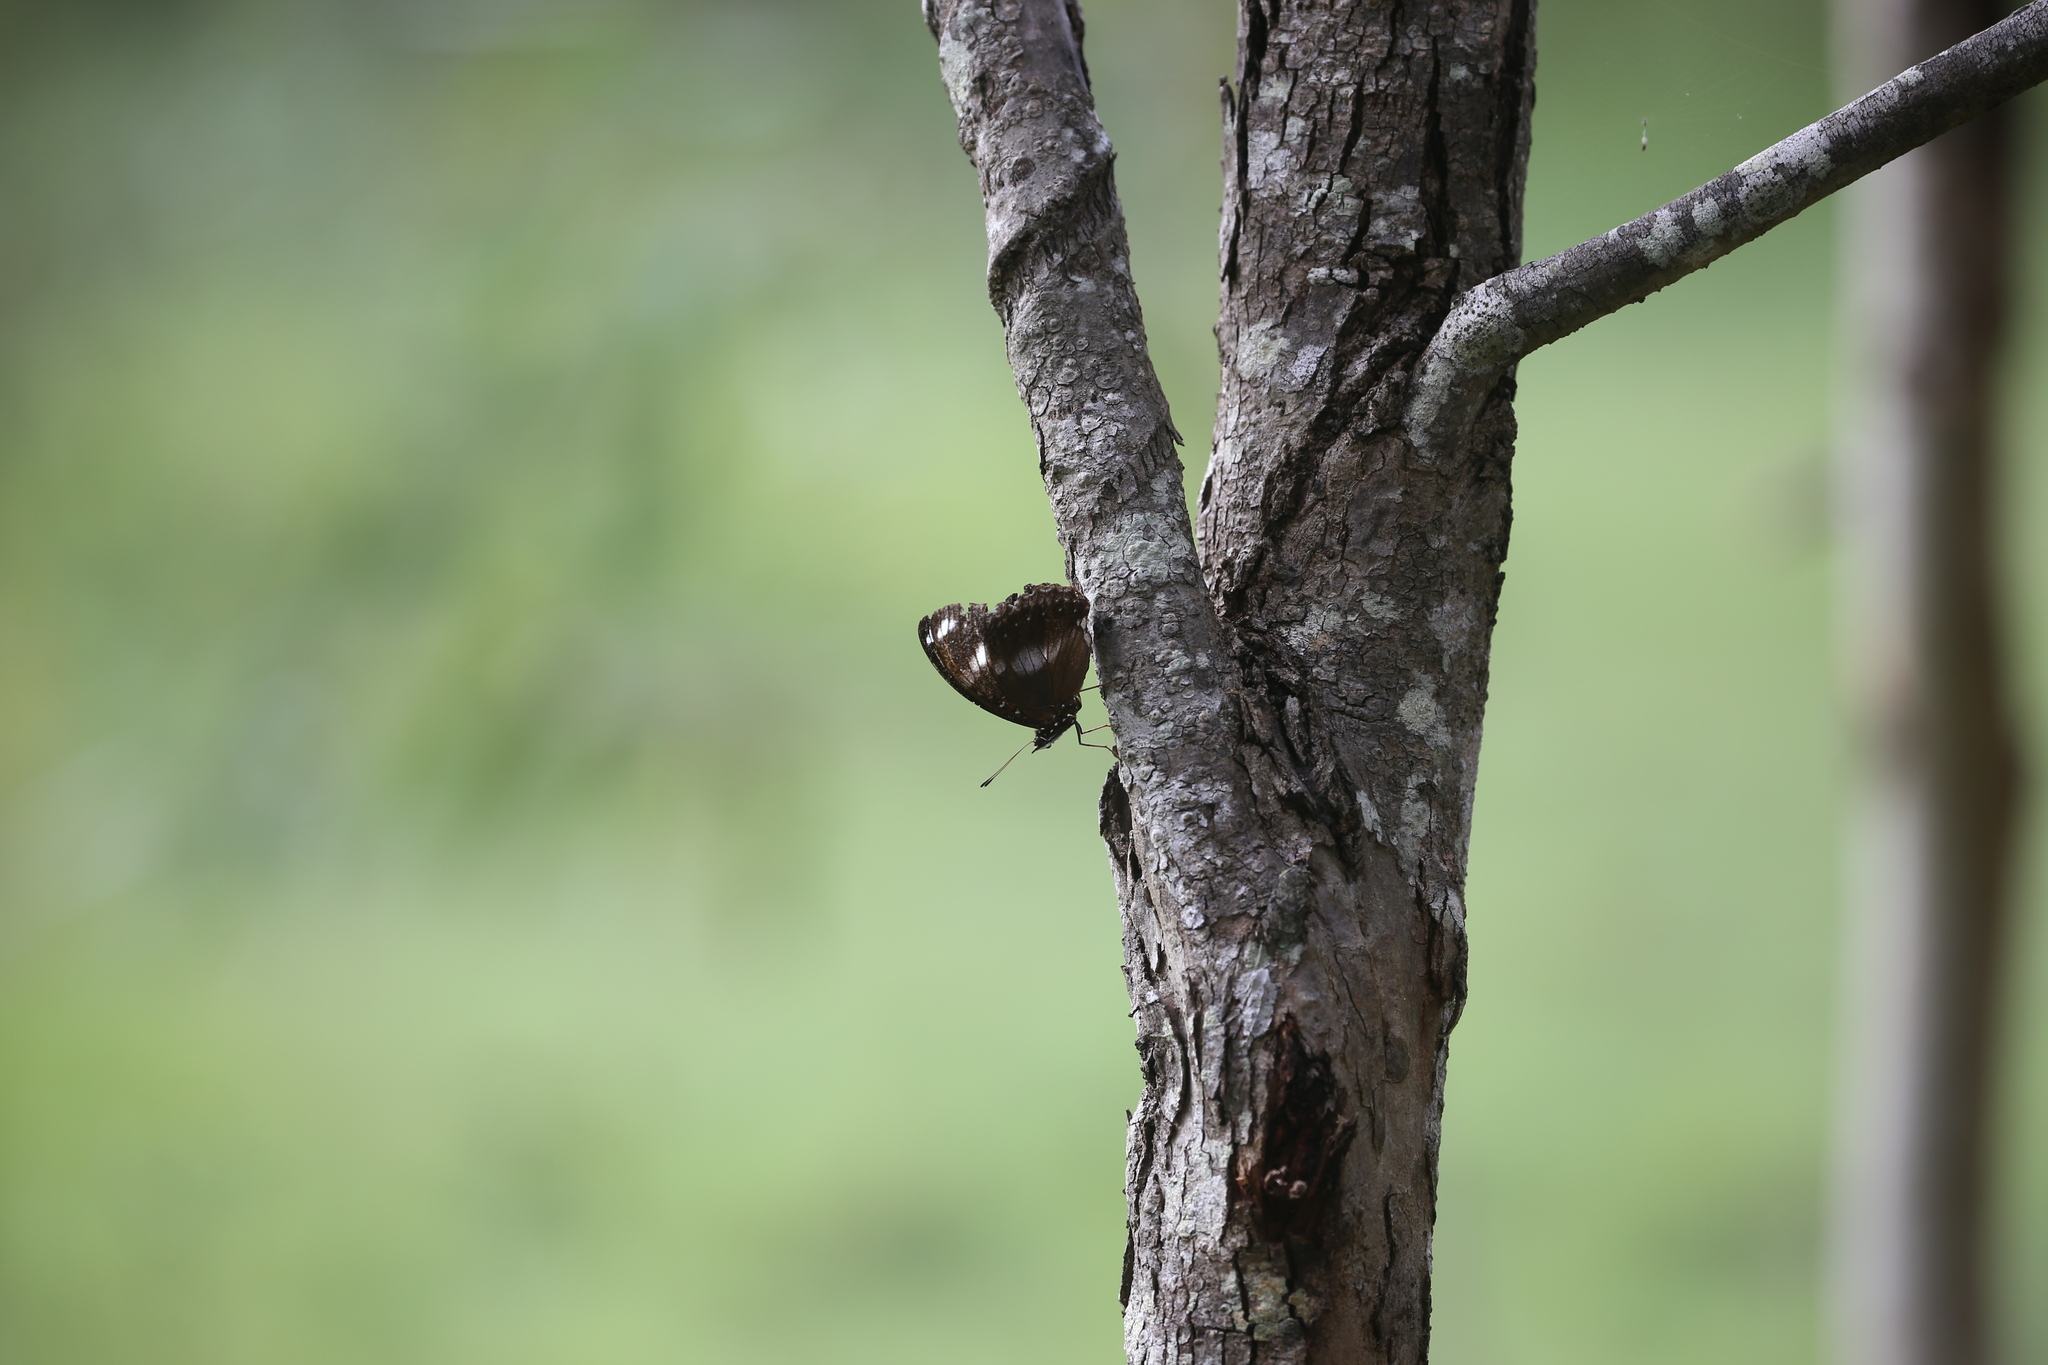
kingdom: Animalia
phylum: Arthropoda
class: Insecta
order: Lepidoptera
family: Nymphalidae
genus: Hypolimnas
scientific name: Hypolimnas bolina
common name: Great eggfly
